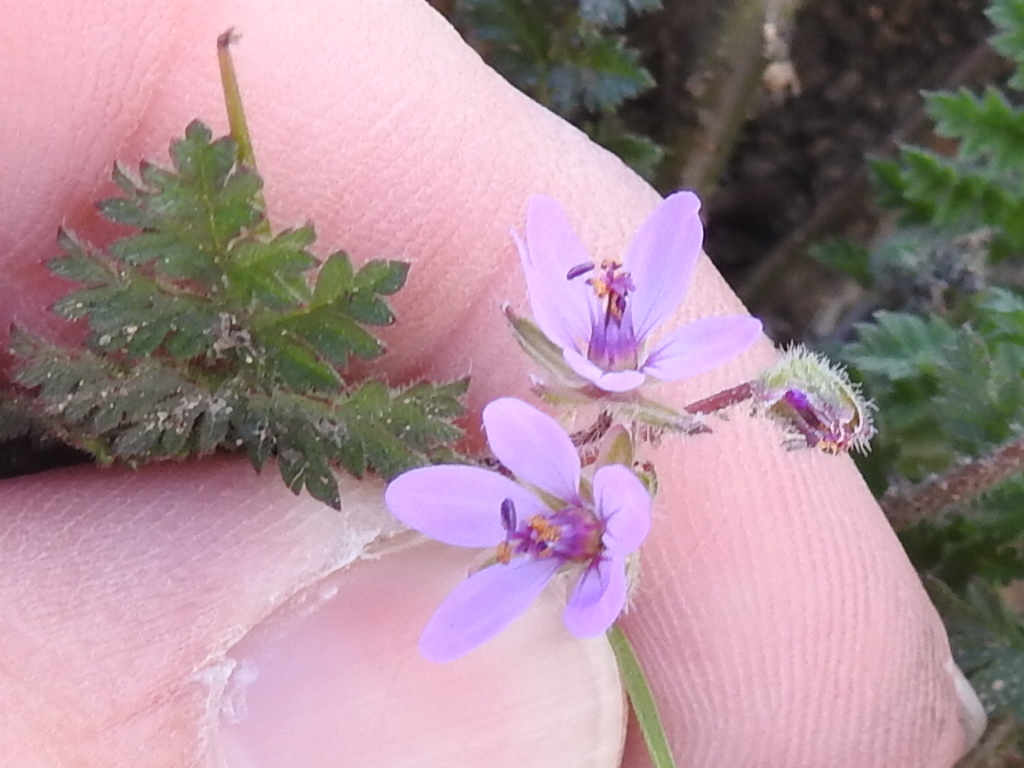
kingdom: Plantae
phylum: Tracheophyta
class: Magnoliopsida
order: Geraniales
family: Geraniaceae
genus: Erodium
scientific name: Erodium cicutarium
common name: Common stork's-bill
